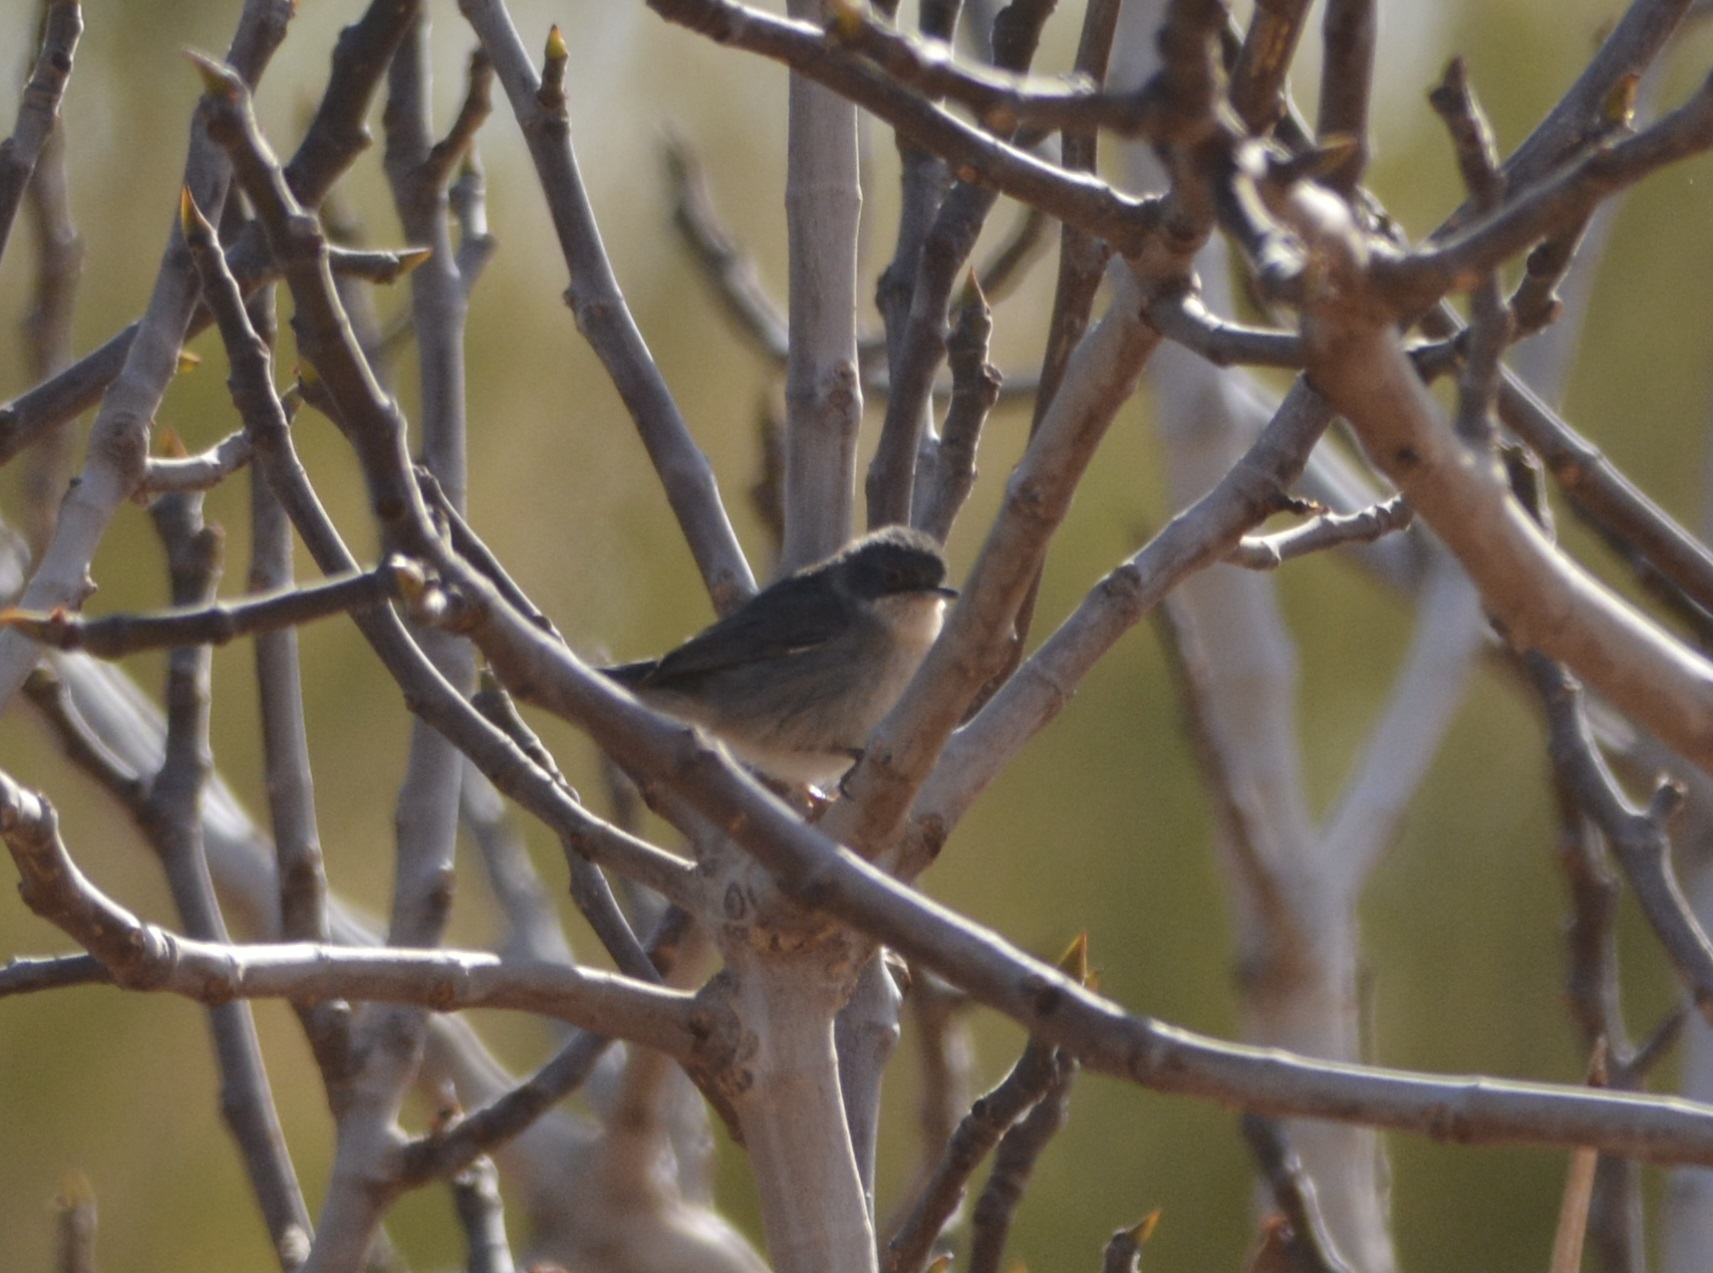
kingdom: Animalia
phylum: Chordata
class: Aves
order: Passeriformes
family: Sylviidae
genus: Curruca
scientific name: Curruca melanocephala
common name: Sardinian warbler
